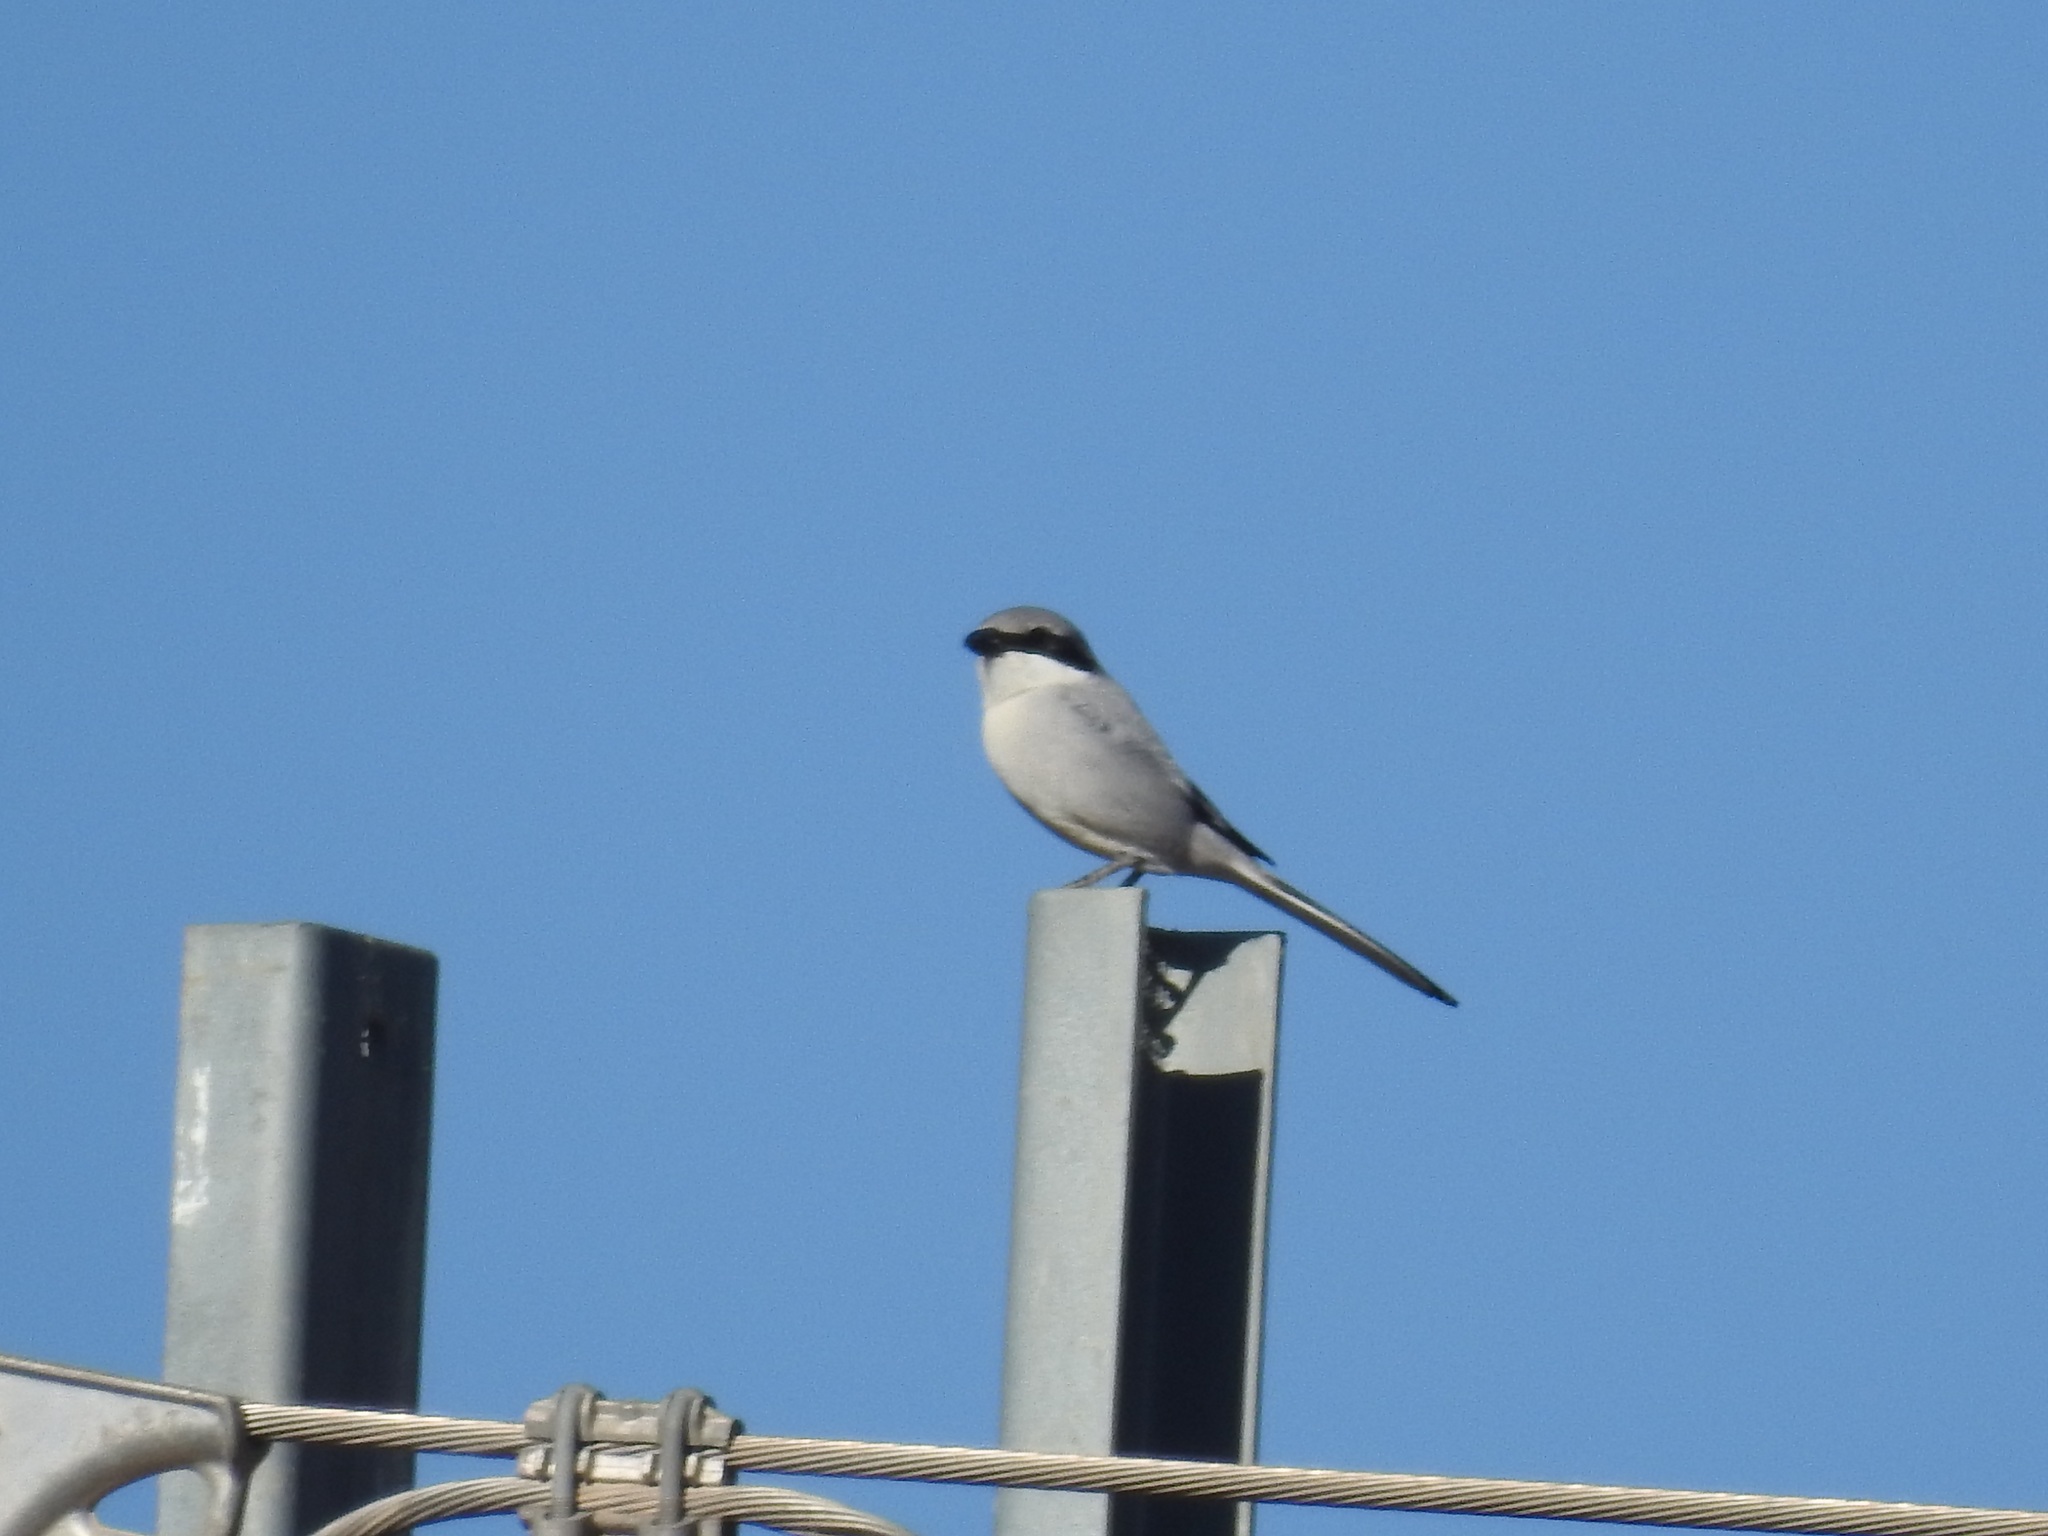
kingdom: Animalia
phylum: Chordata
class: Aves
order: Passeriformes
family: Laniidae
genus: Lanius
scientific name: Lanius excubitor
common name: Great grey shrike
